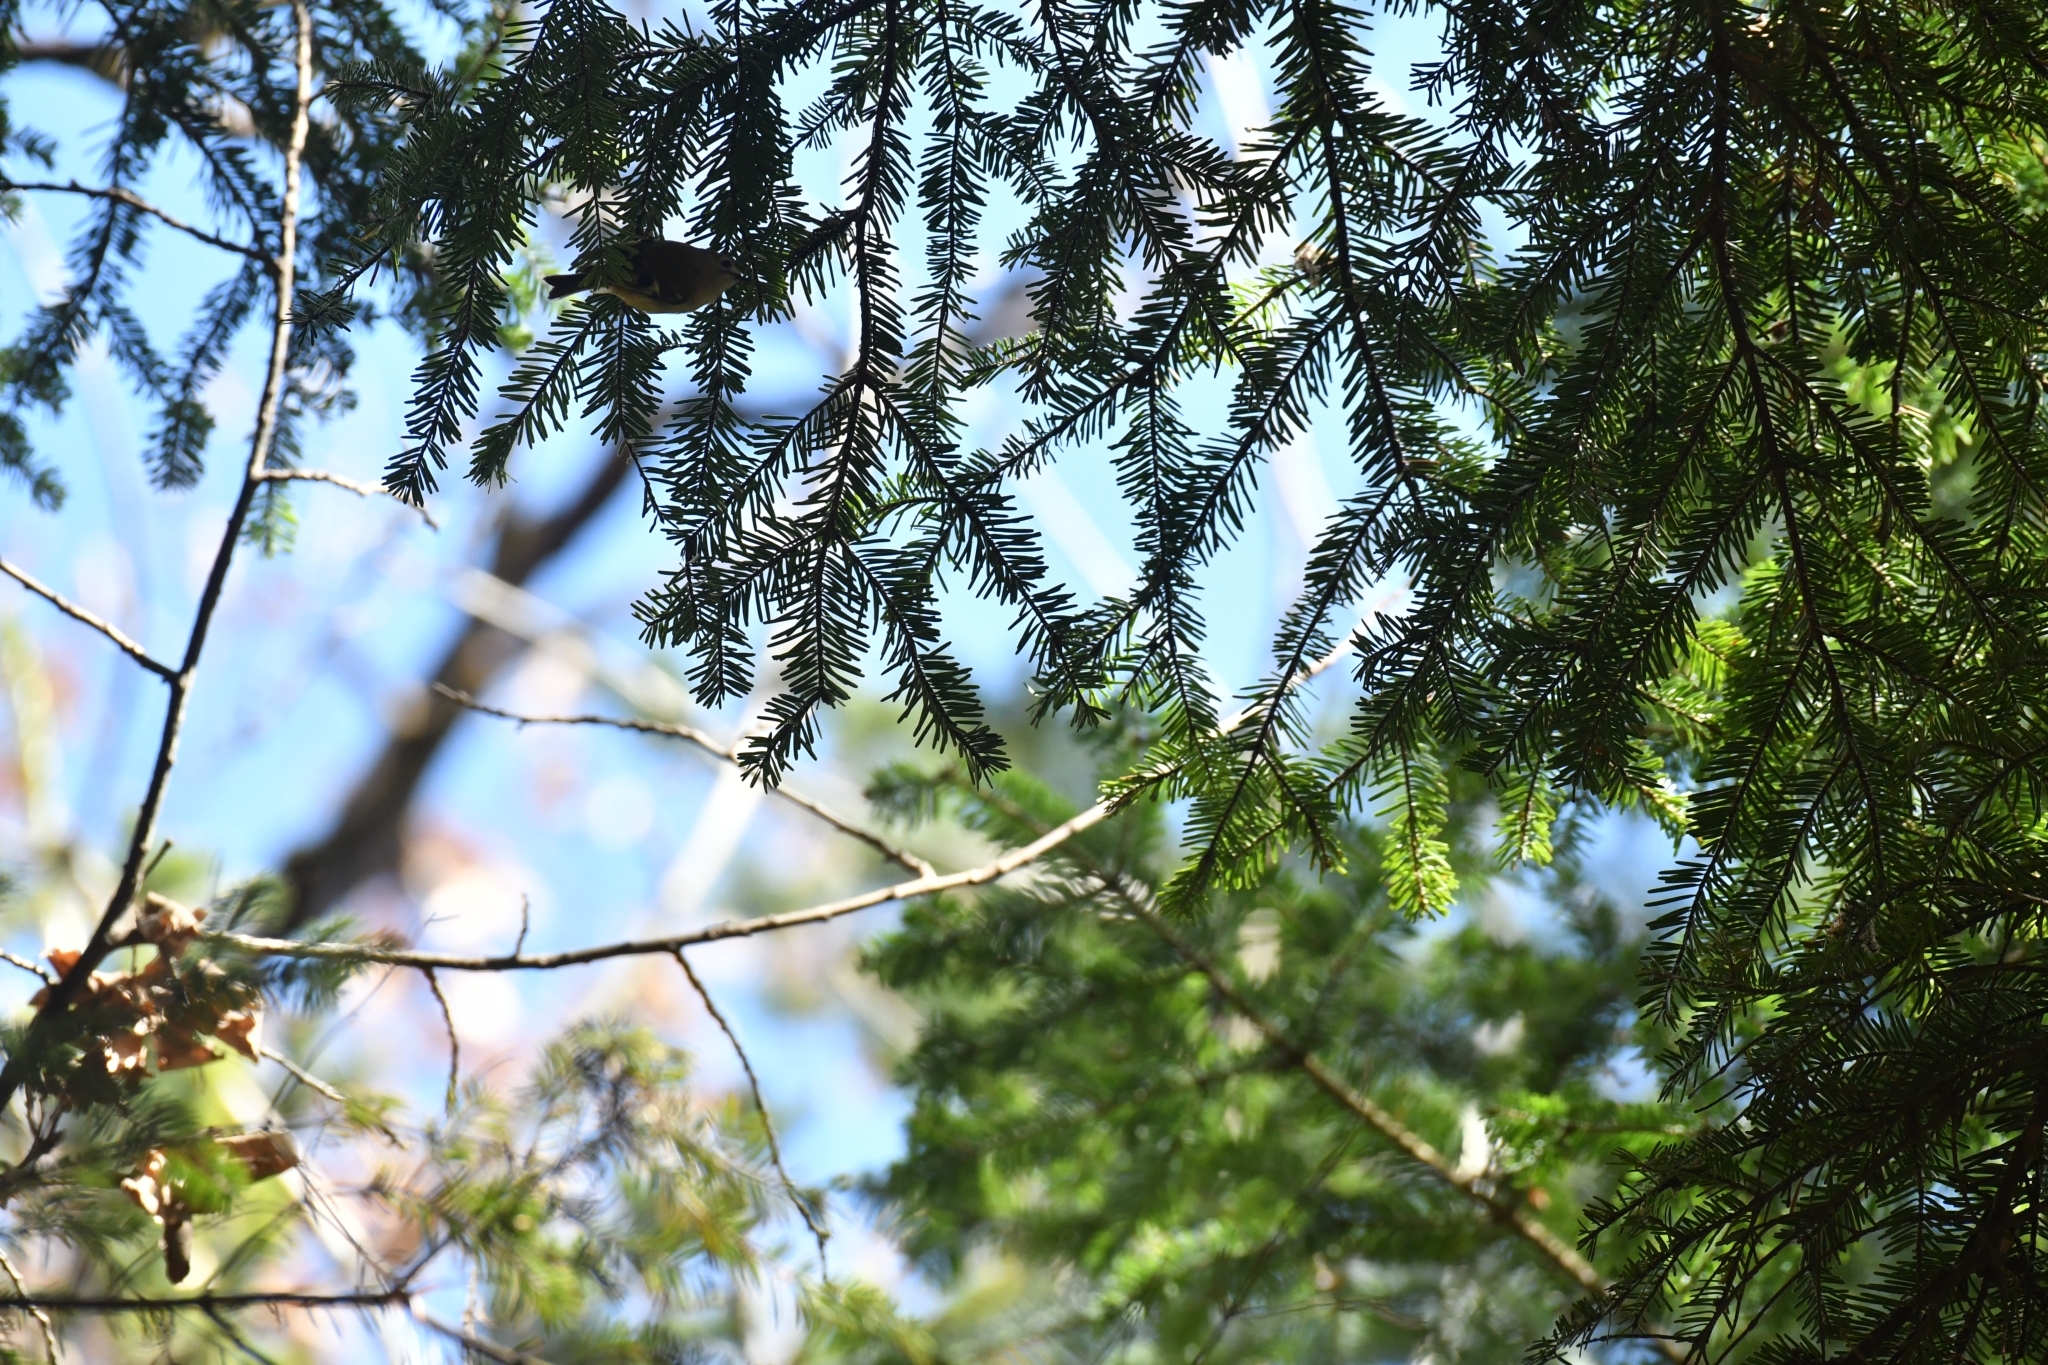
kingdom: Animalia
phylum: Chordata
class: Aves
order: Passeriformes
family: Regulidae
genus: Regulus
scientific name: Regulus regulus
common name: Goldcrest
